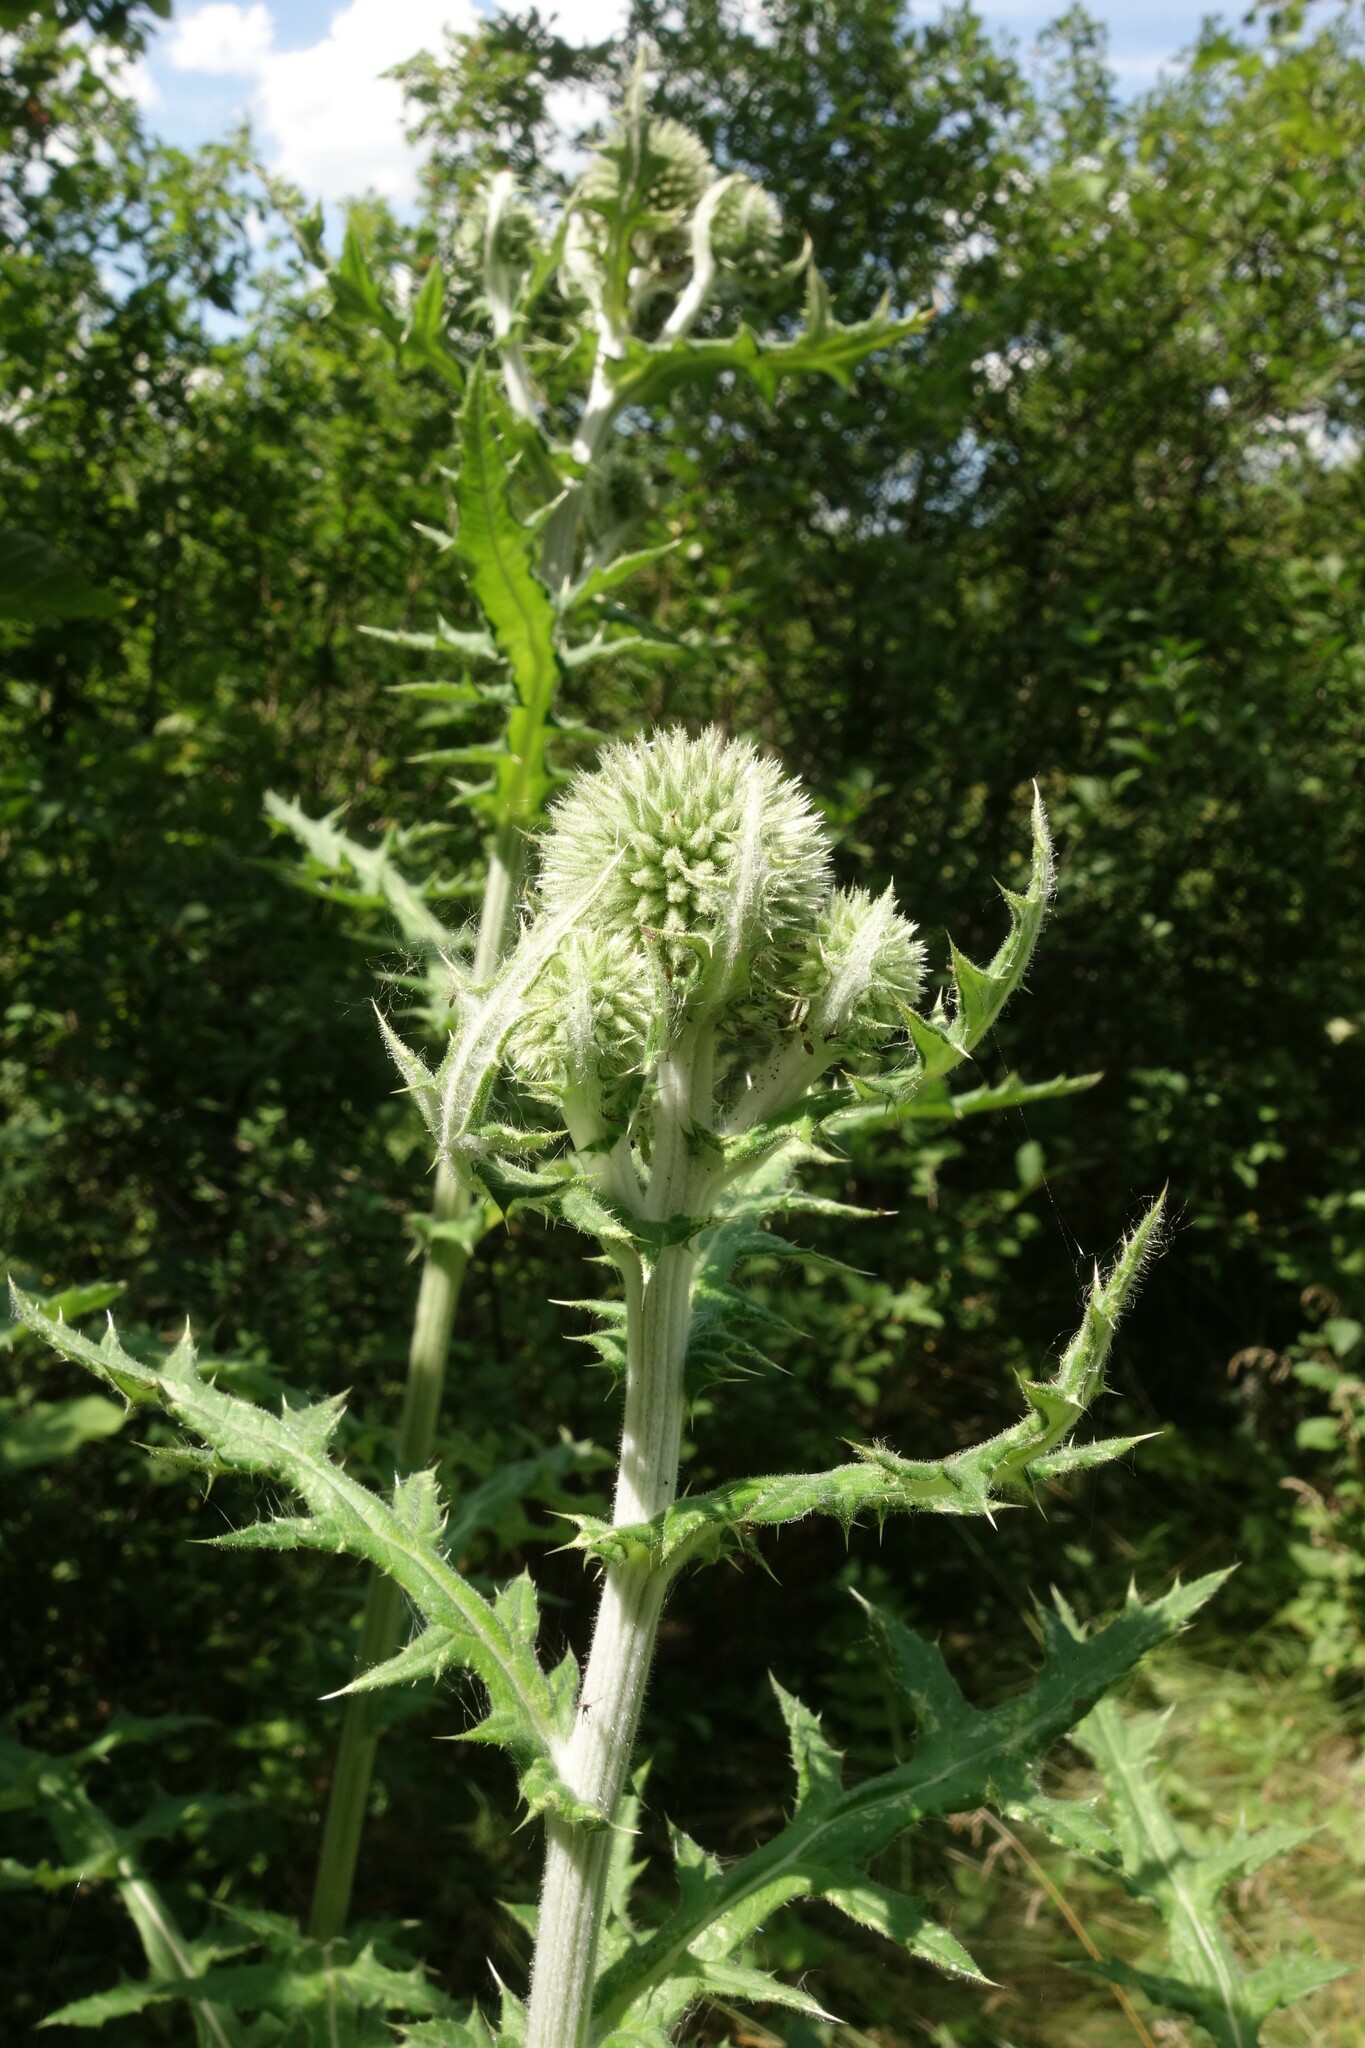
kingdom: Plantae
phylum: Tracheophyta
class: Magnoliopsida
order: Asterales
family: Asteraceae
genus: Echinops
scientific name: Echinops sphaerocephalus
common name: Glandular globe-thistle
